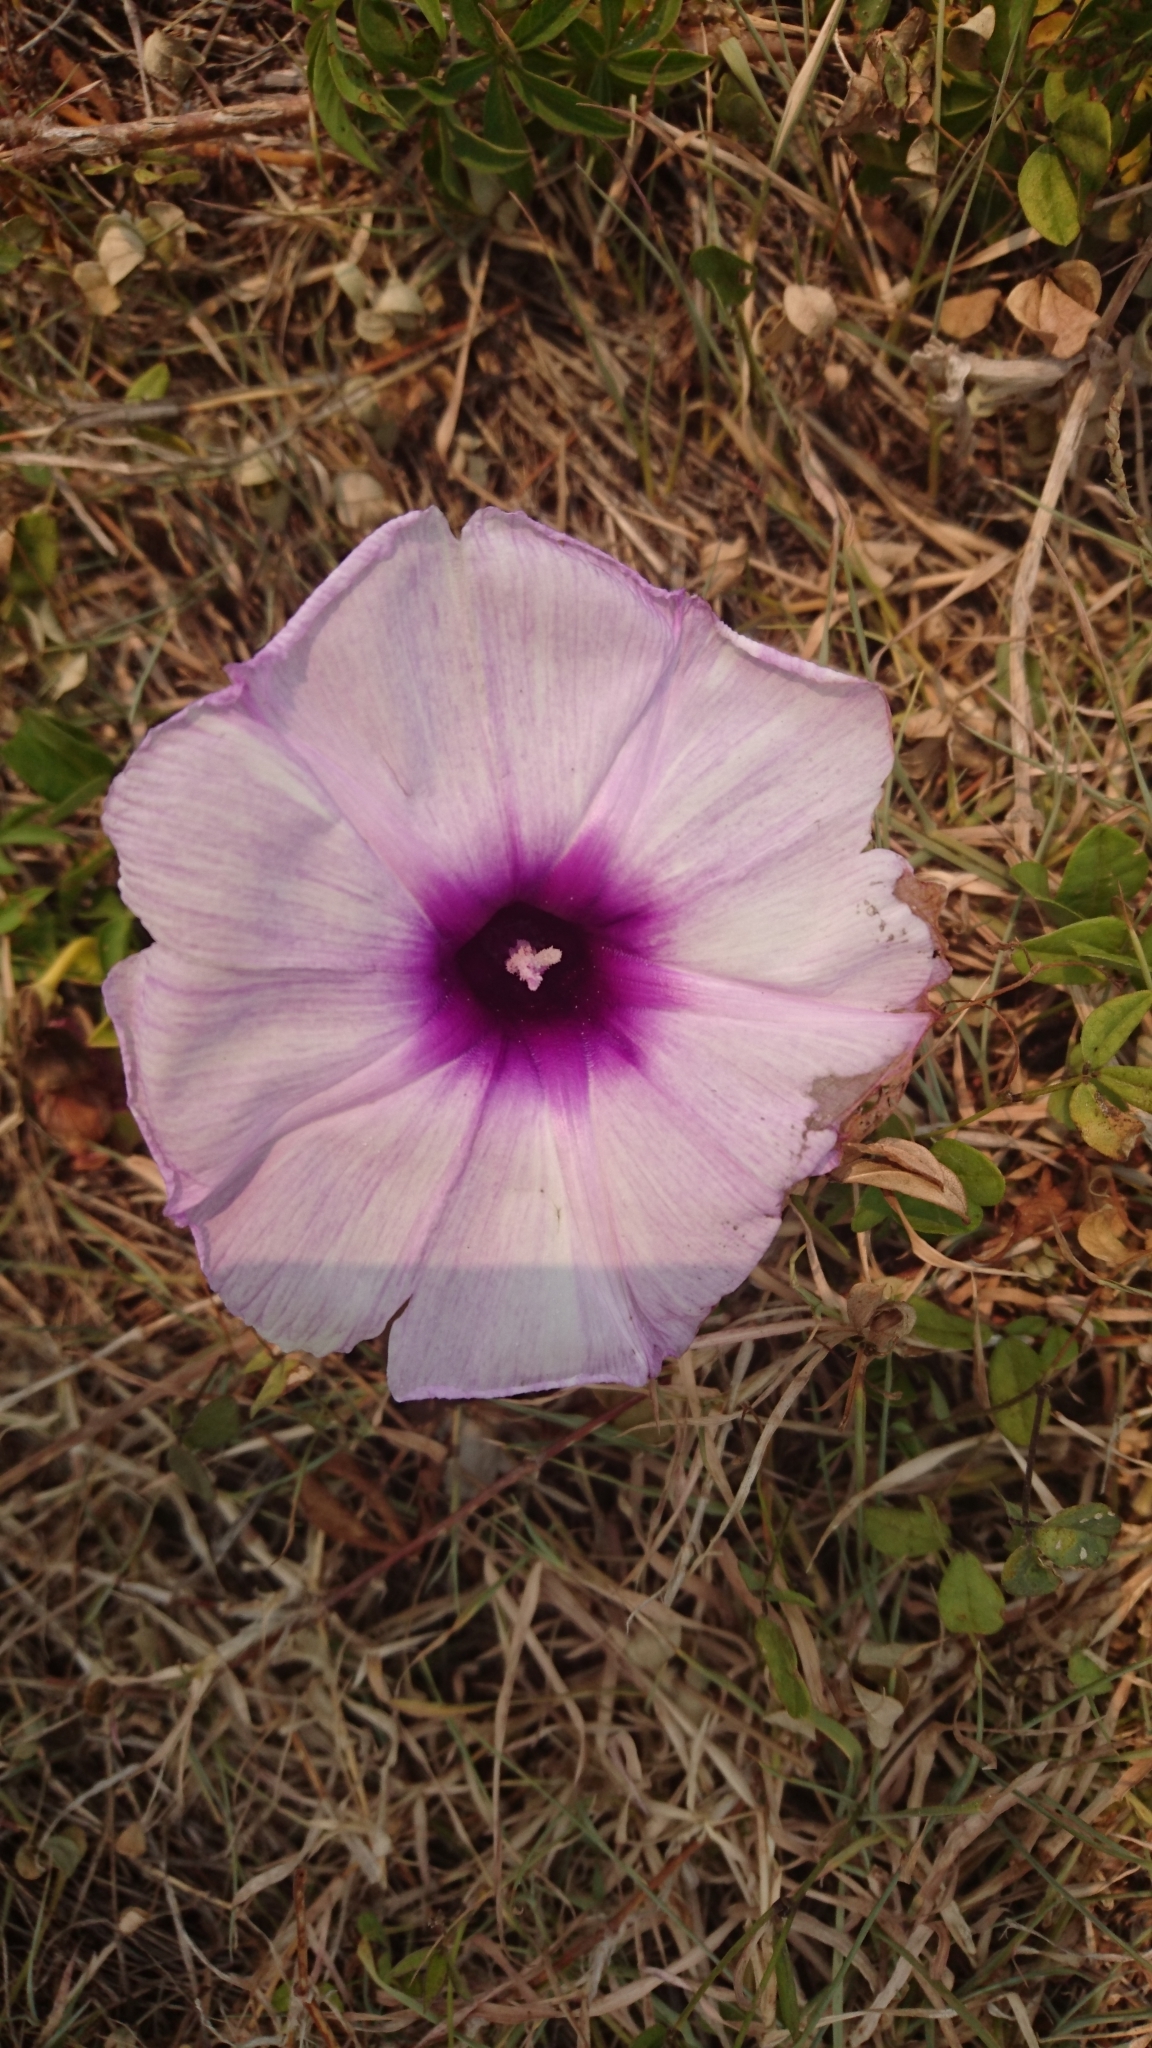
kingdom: Plantae
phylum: Tracheophyta
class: Magnoliopsida
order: Solanales
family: Convolvulaceae
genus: Ipomoea
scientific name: Ipomoea cairica
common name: Mile a minute vine
